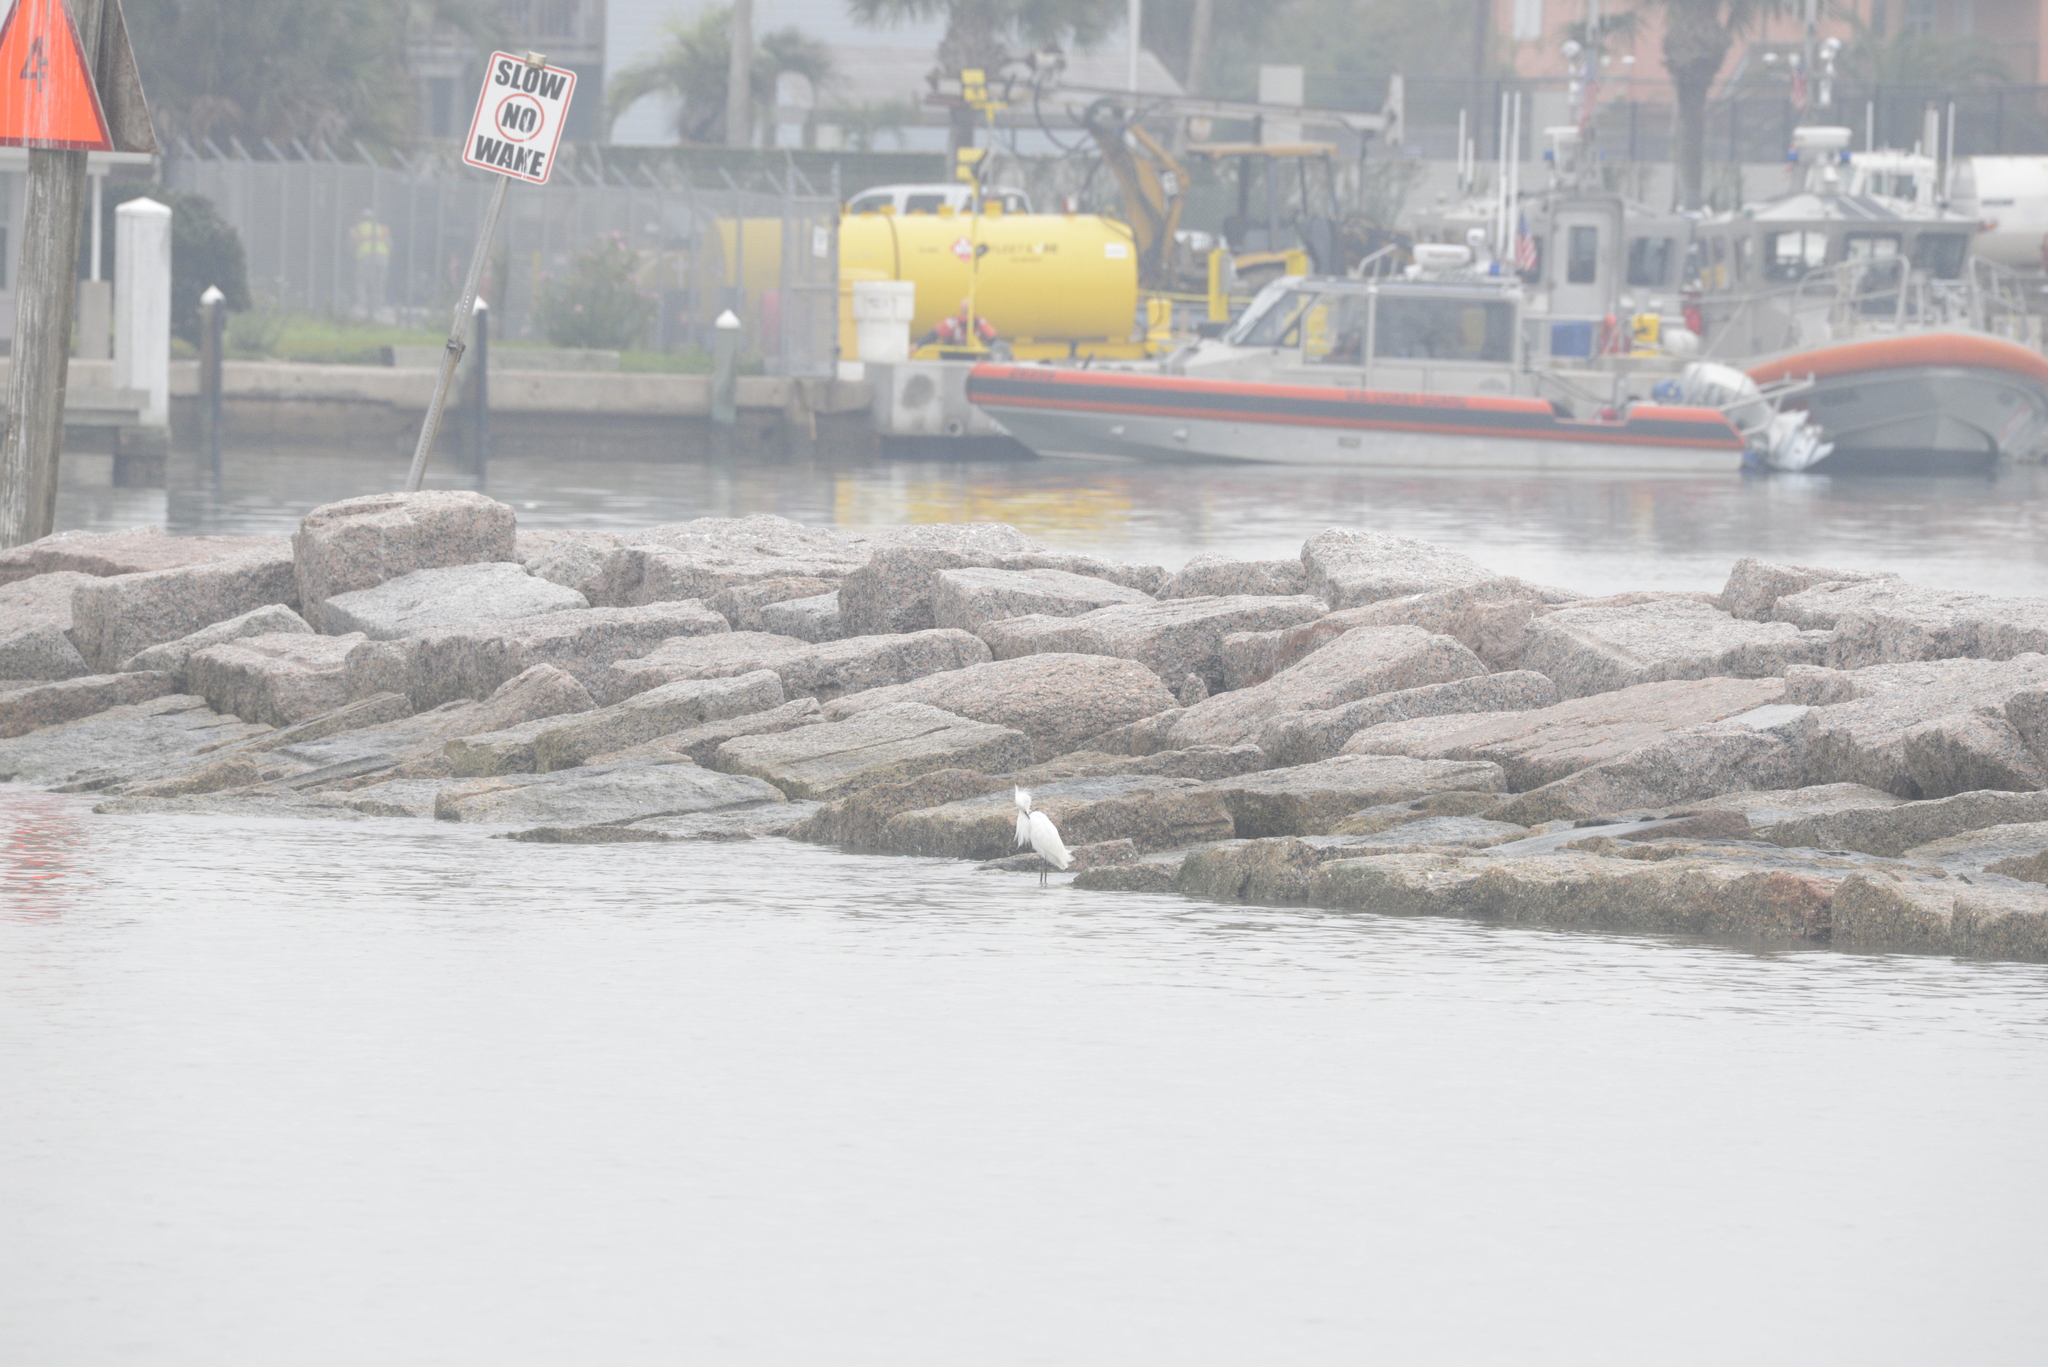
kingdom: Animalia
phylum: Chordata
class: Aves
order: Pelecaniformes
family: Ardeidae
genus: Egretta
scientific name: Egretta thula
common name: Snowy egret
